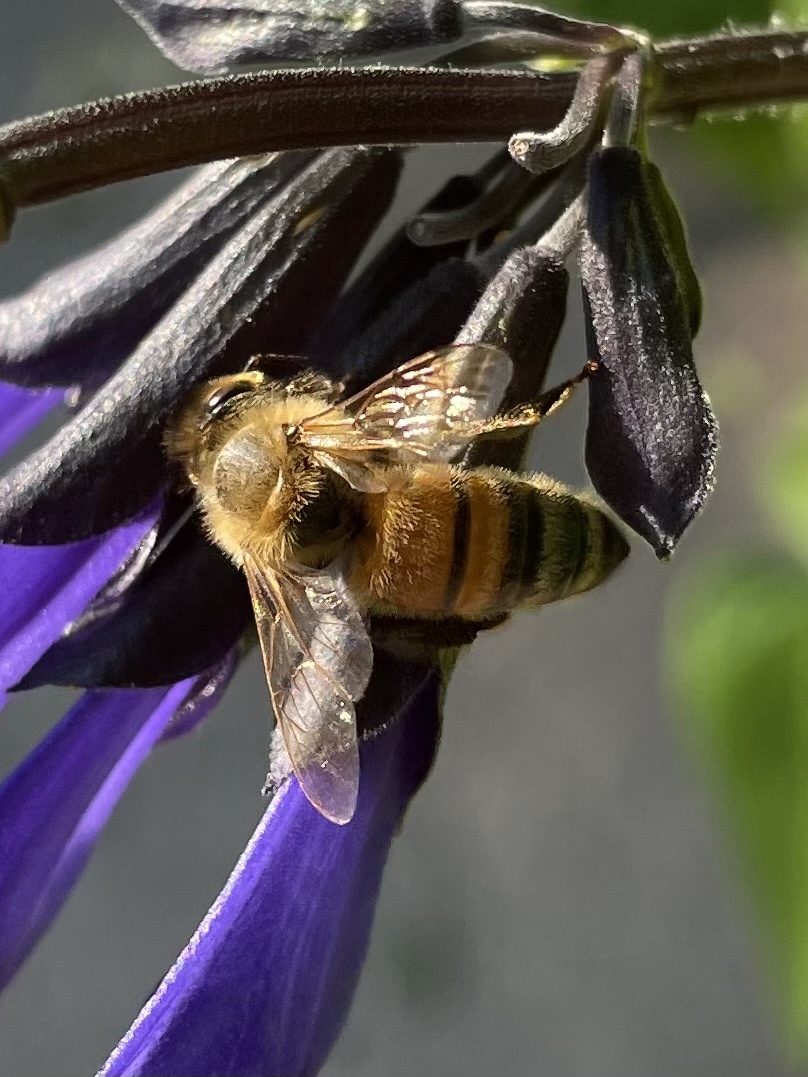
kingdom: Animalia
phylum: Arthropoda
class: Insecta
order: Hymenoptera
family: Apidae
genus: Apis
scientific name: Apis mellifera
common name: Honey bee
